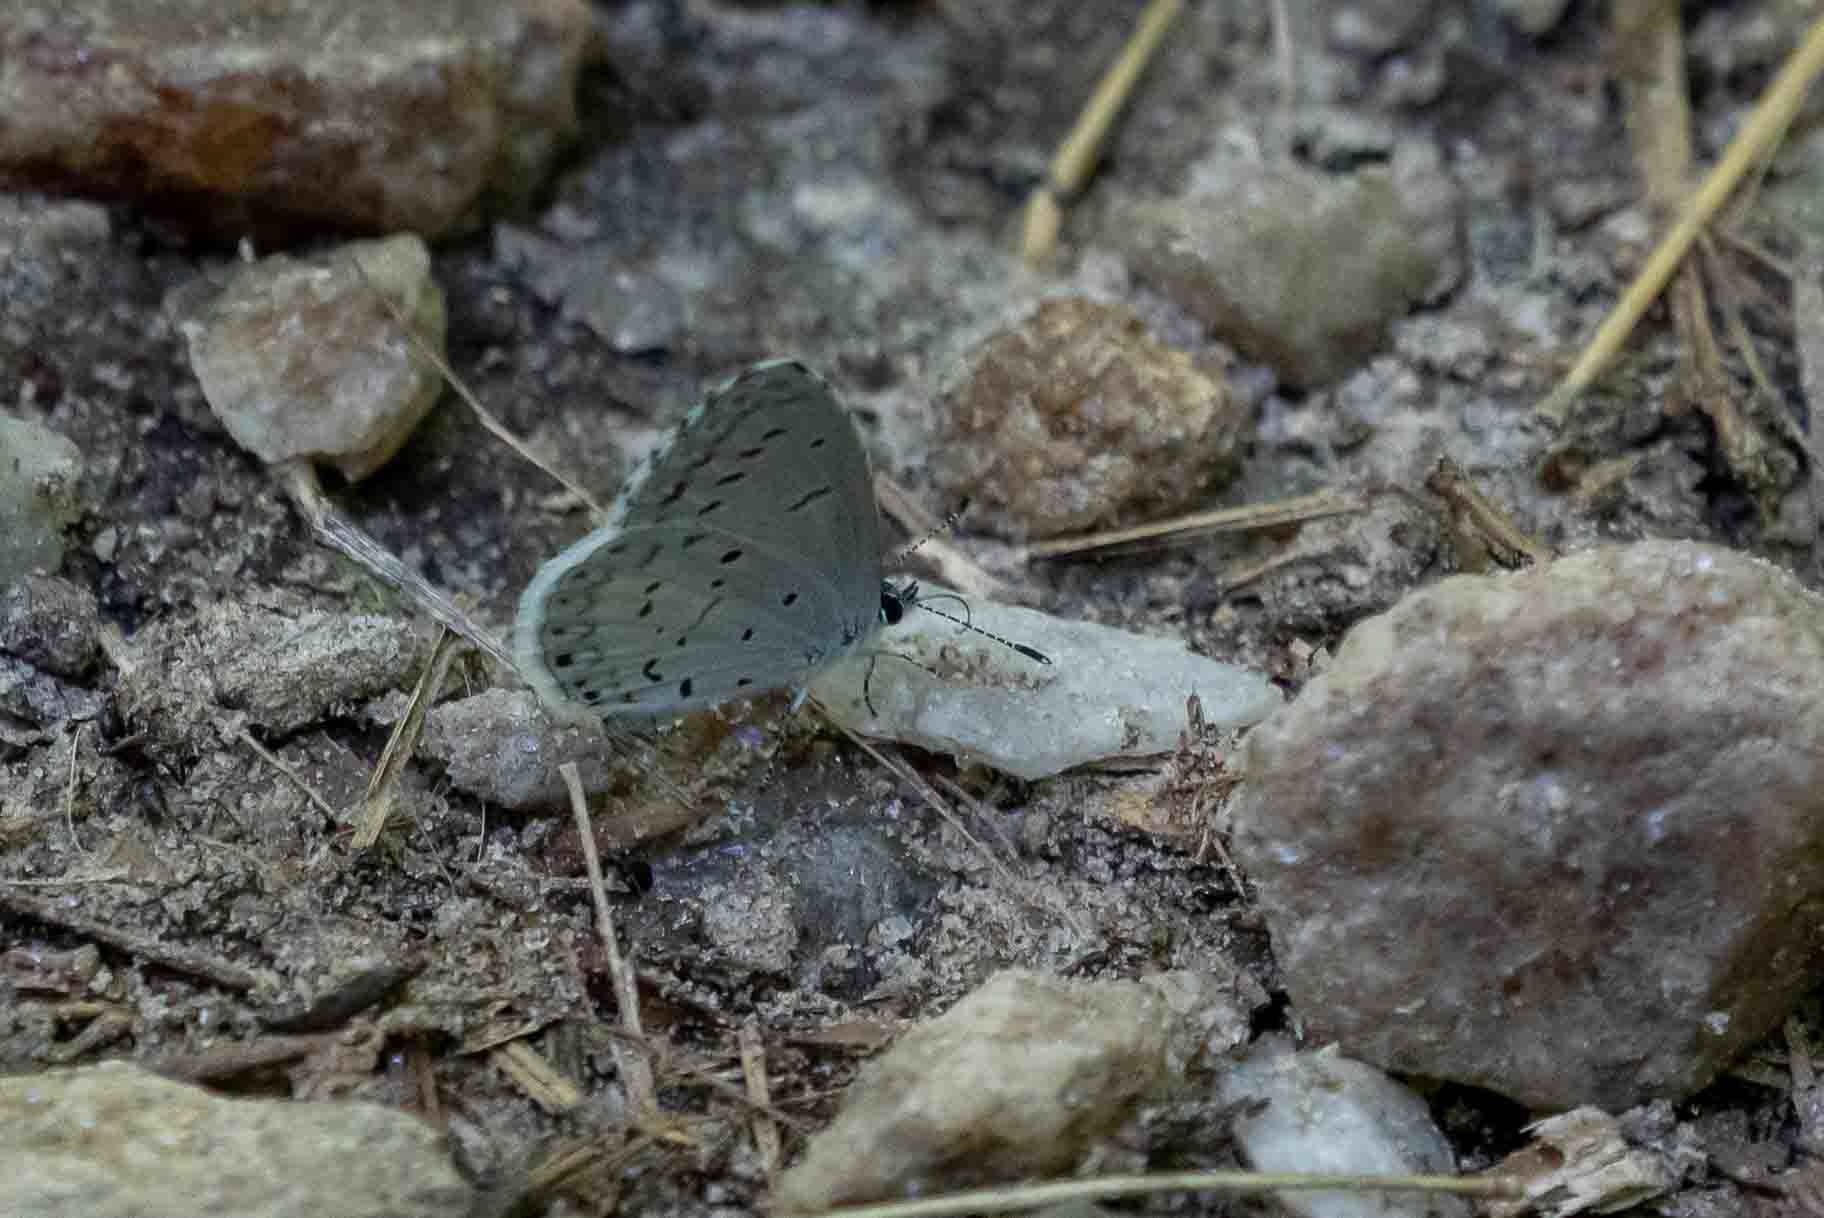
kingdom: Animalia
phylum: Arthropoda
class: Insecta
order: Lepidoptera
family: Lycaenidae
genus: Cyaniris
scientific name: Cyaniris neglecta
